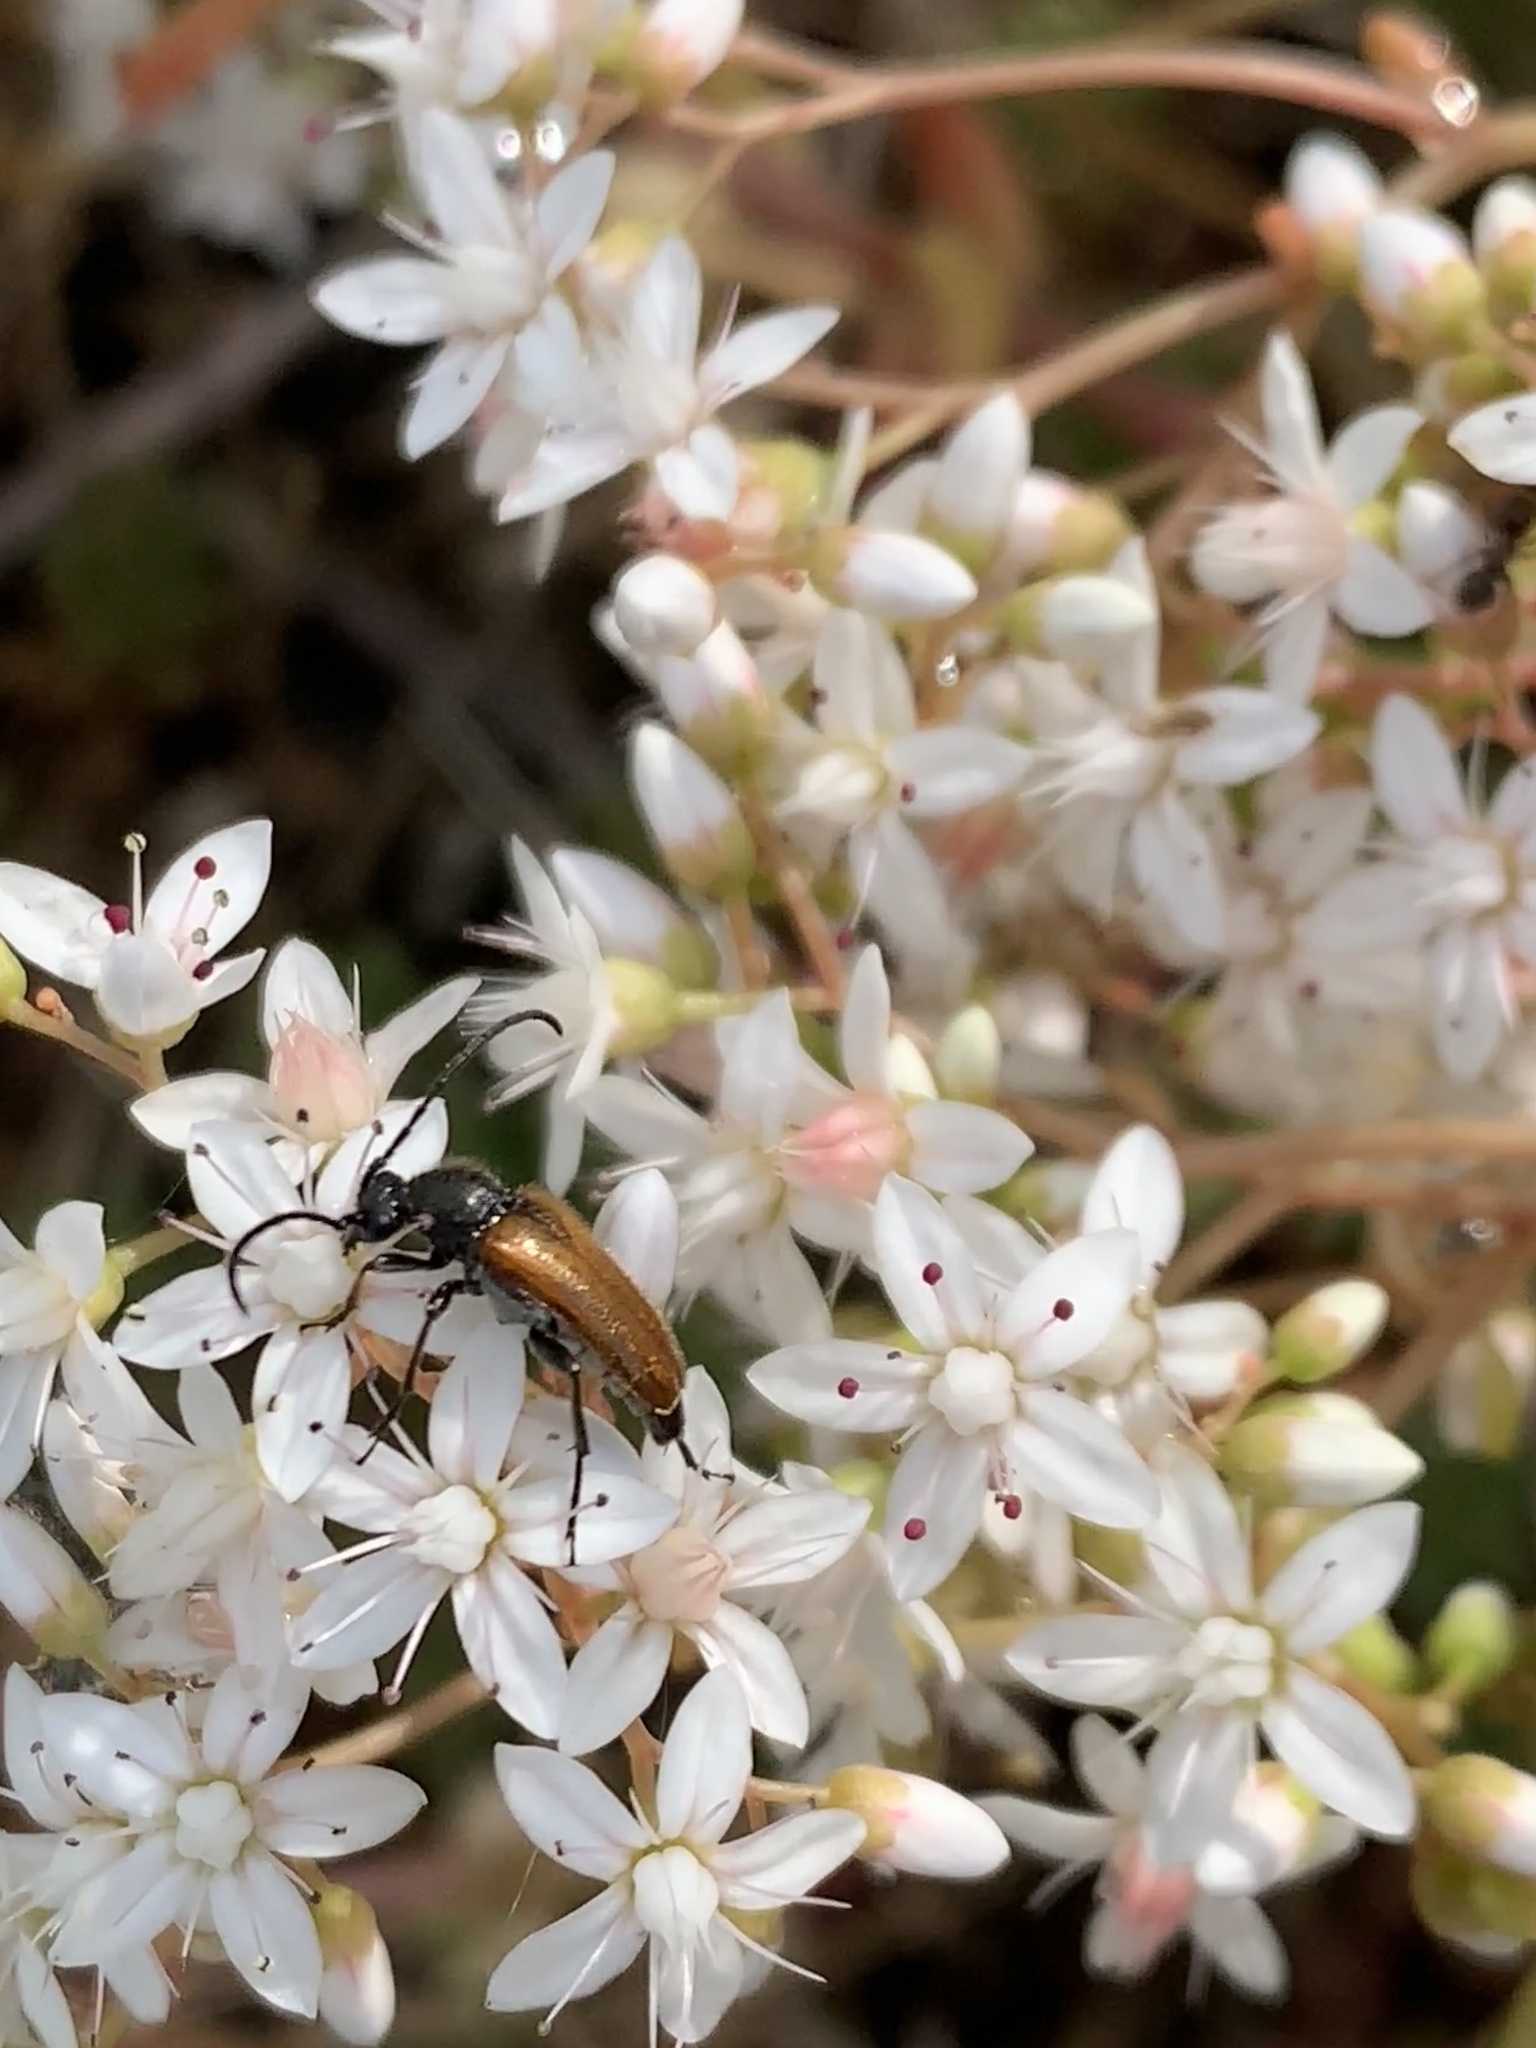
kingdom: Plantae
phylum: Tracheophyta
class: Magnoliopsida
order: Saxifragales
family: Crassulaceae
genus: Sedum
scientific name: Sedum album
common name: White stonecrop
